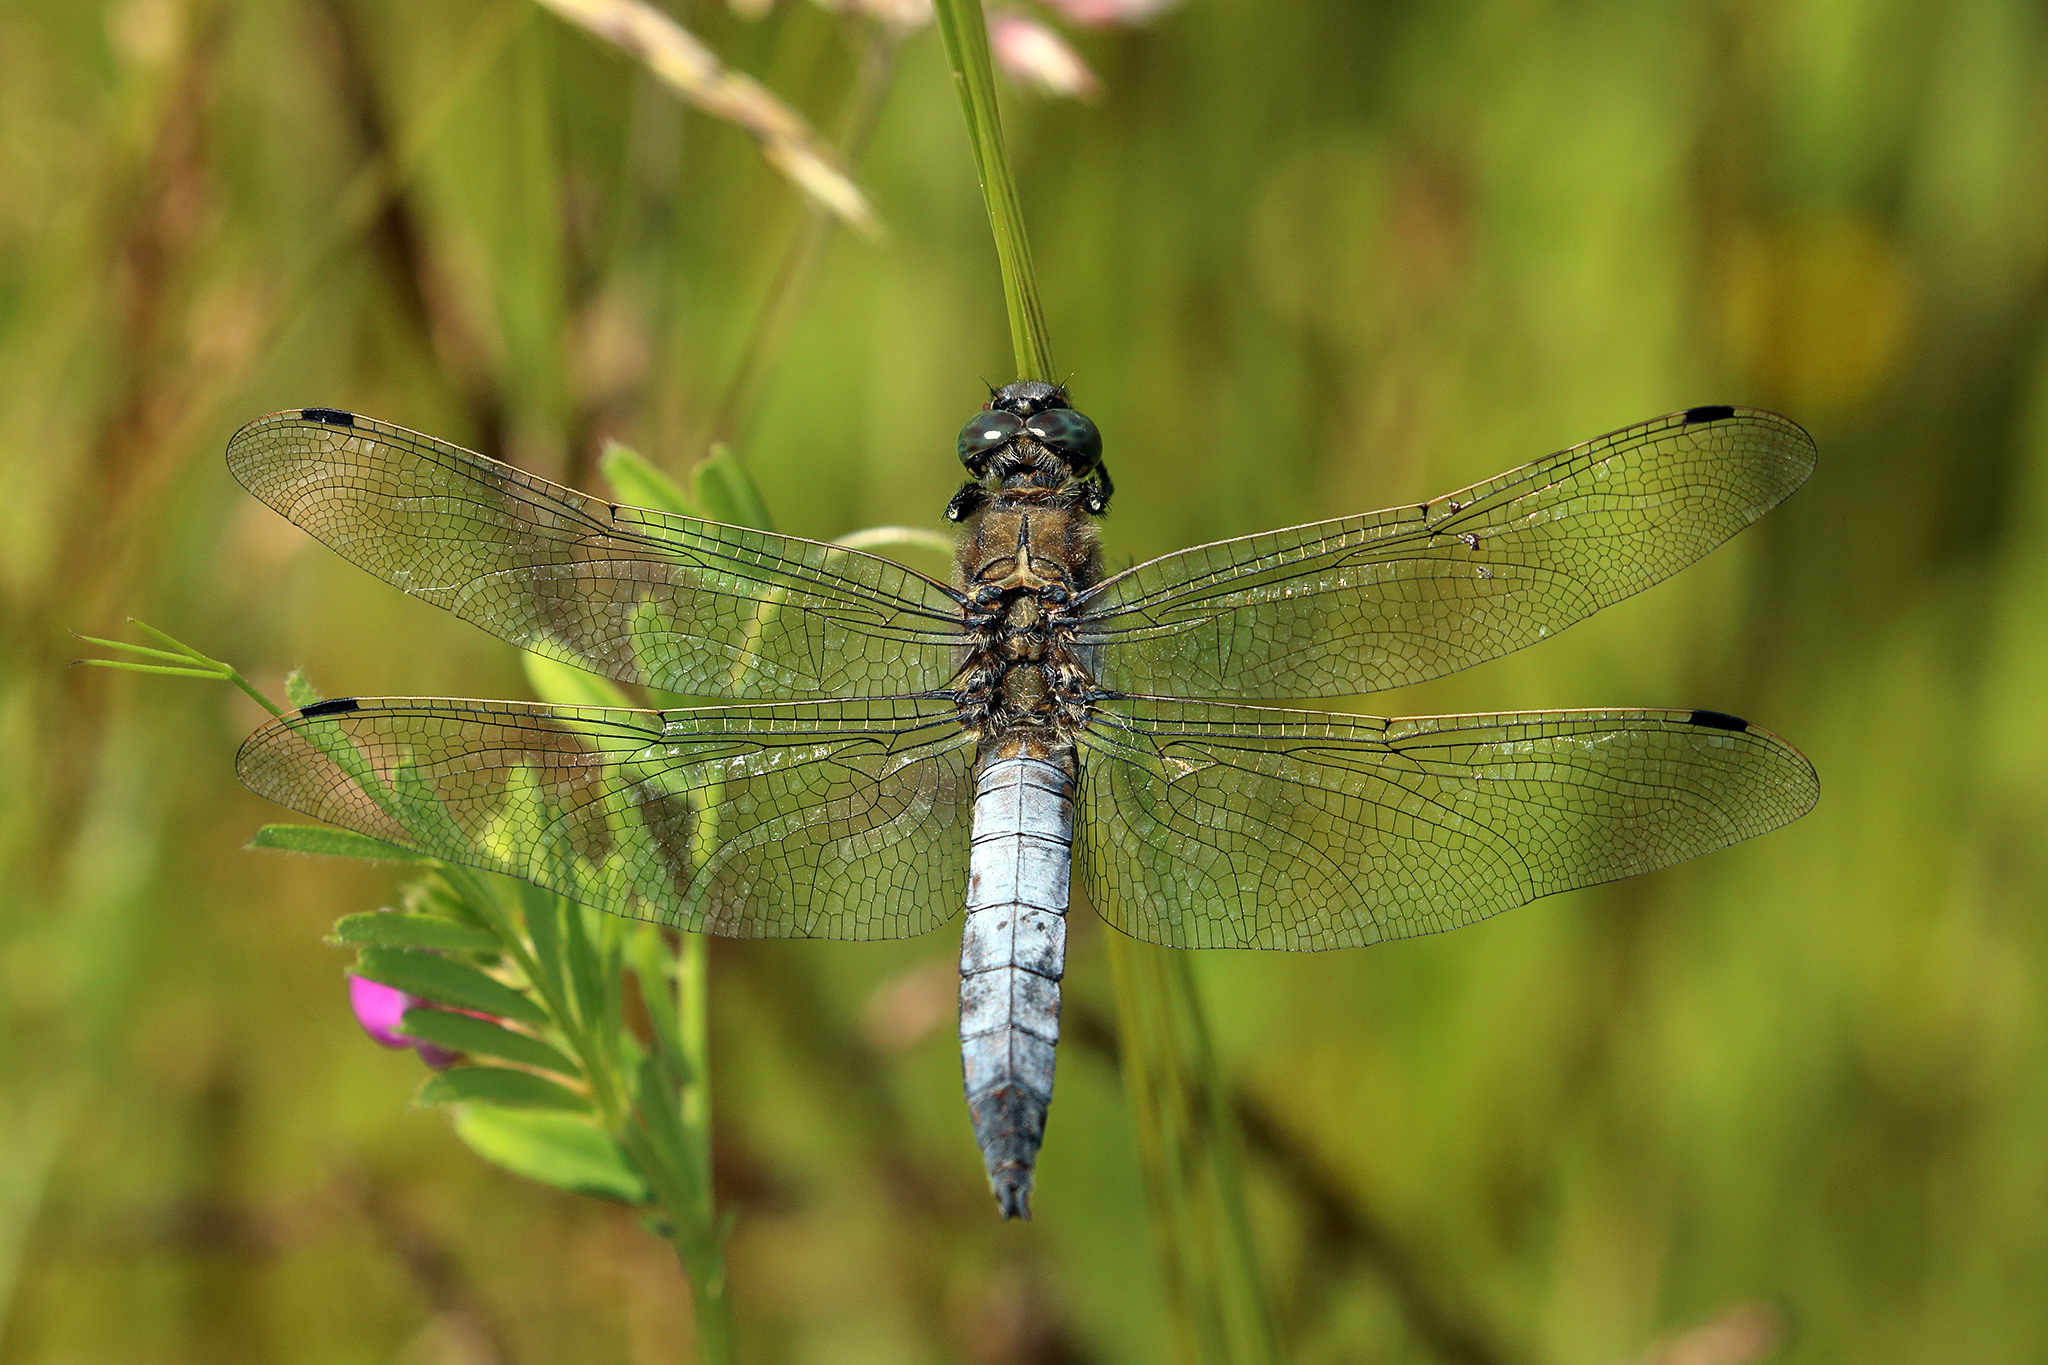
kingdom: Animalia
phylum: Arthropoda
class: Insecta
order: Odonata
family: Libellulidae
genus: Orthetrum
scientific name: Orthetrum cancellatum
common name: Black-tailed skimmer
